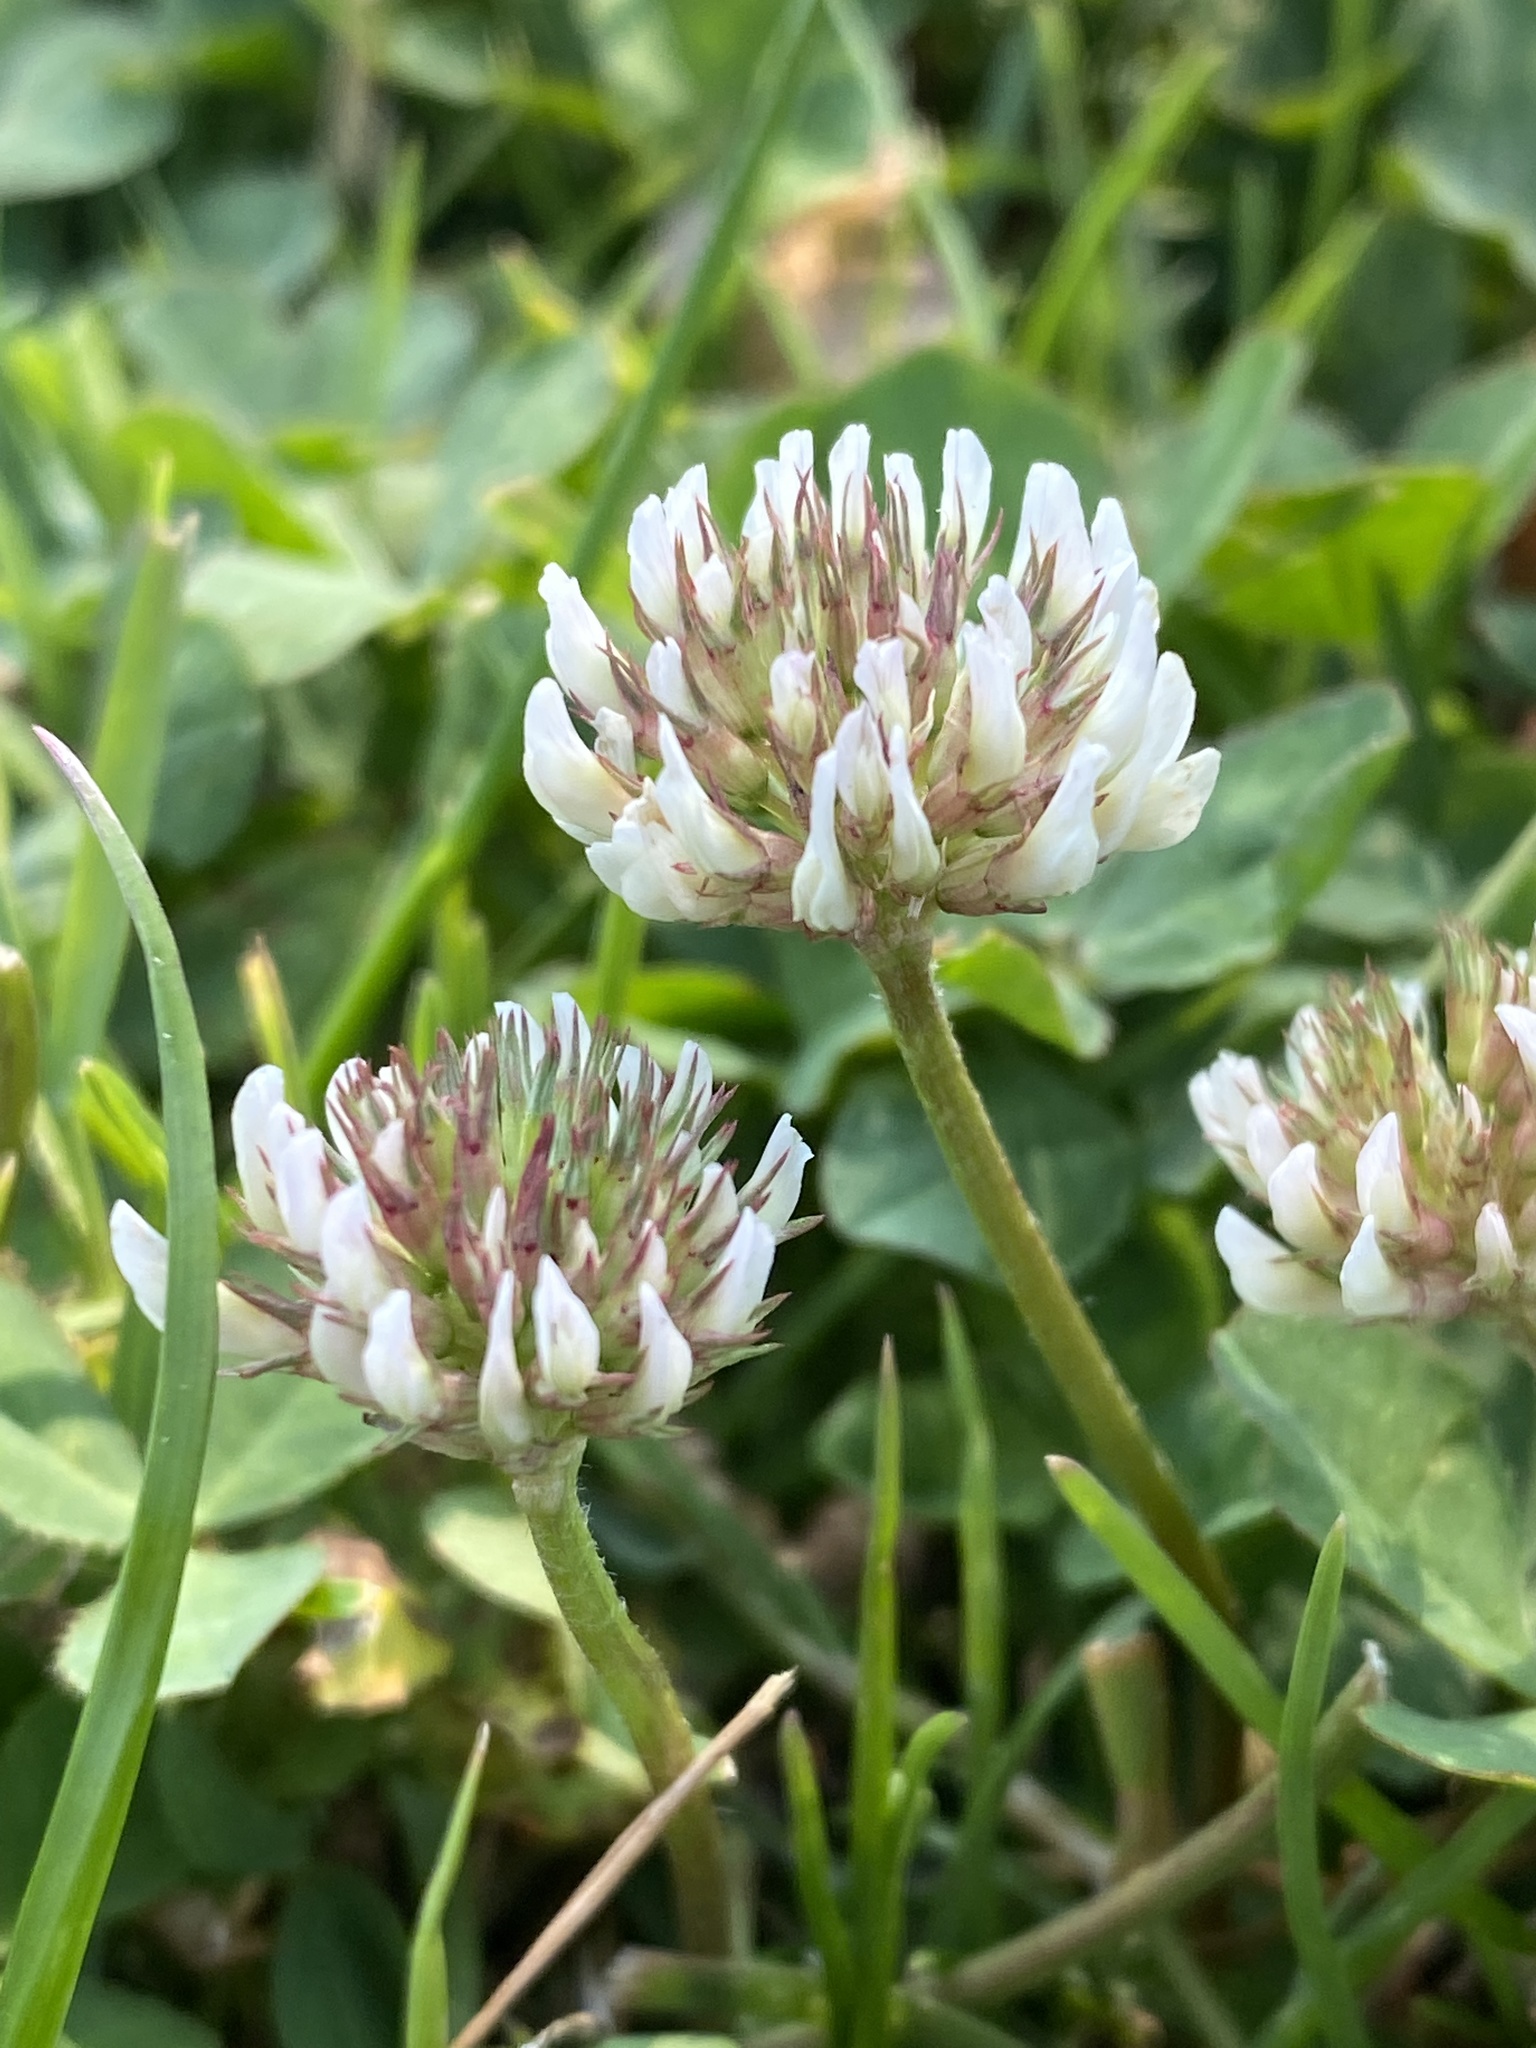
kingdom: Plantae
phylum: Tracheophyta
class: Magnoliopsida
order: Fabales
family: Fabaceae
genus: Trifolium
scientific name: Trifolium repens
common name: White clover
